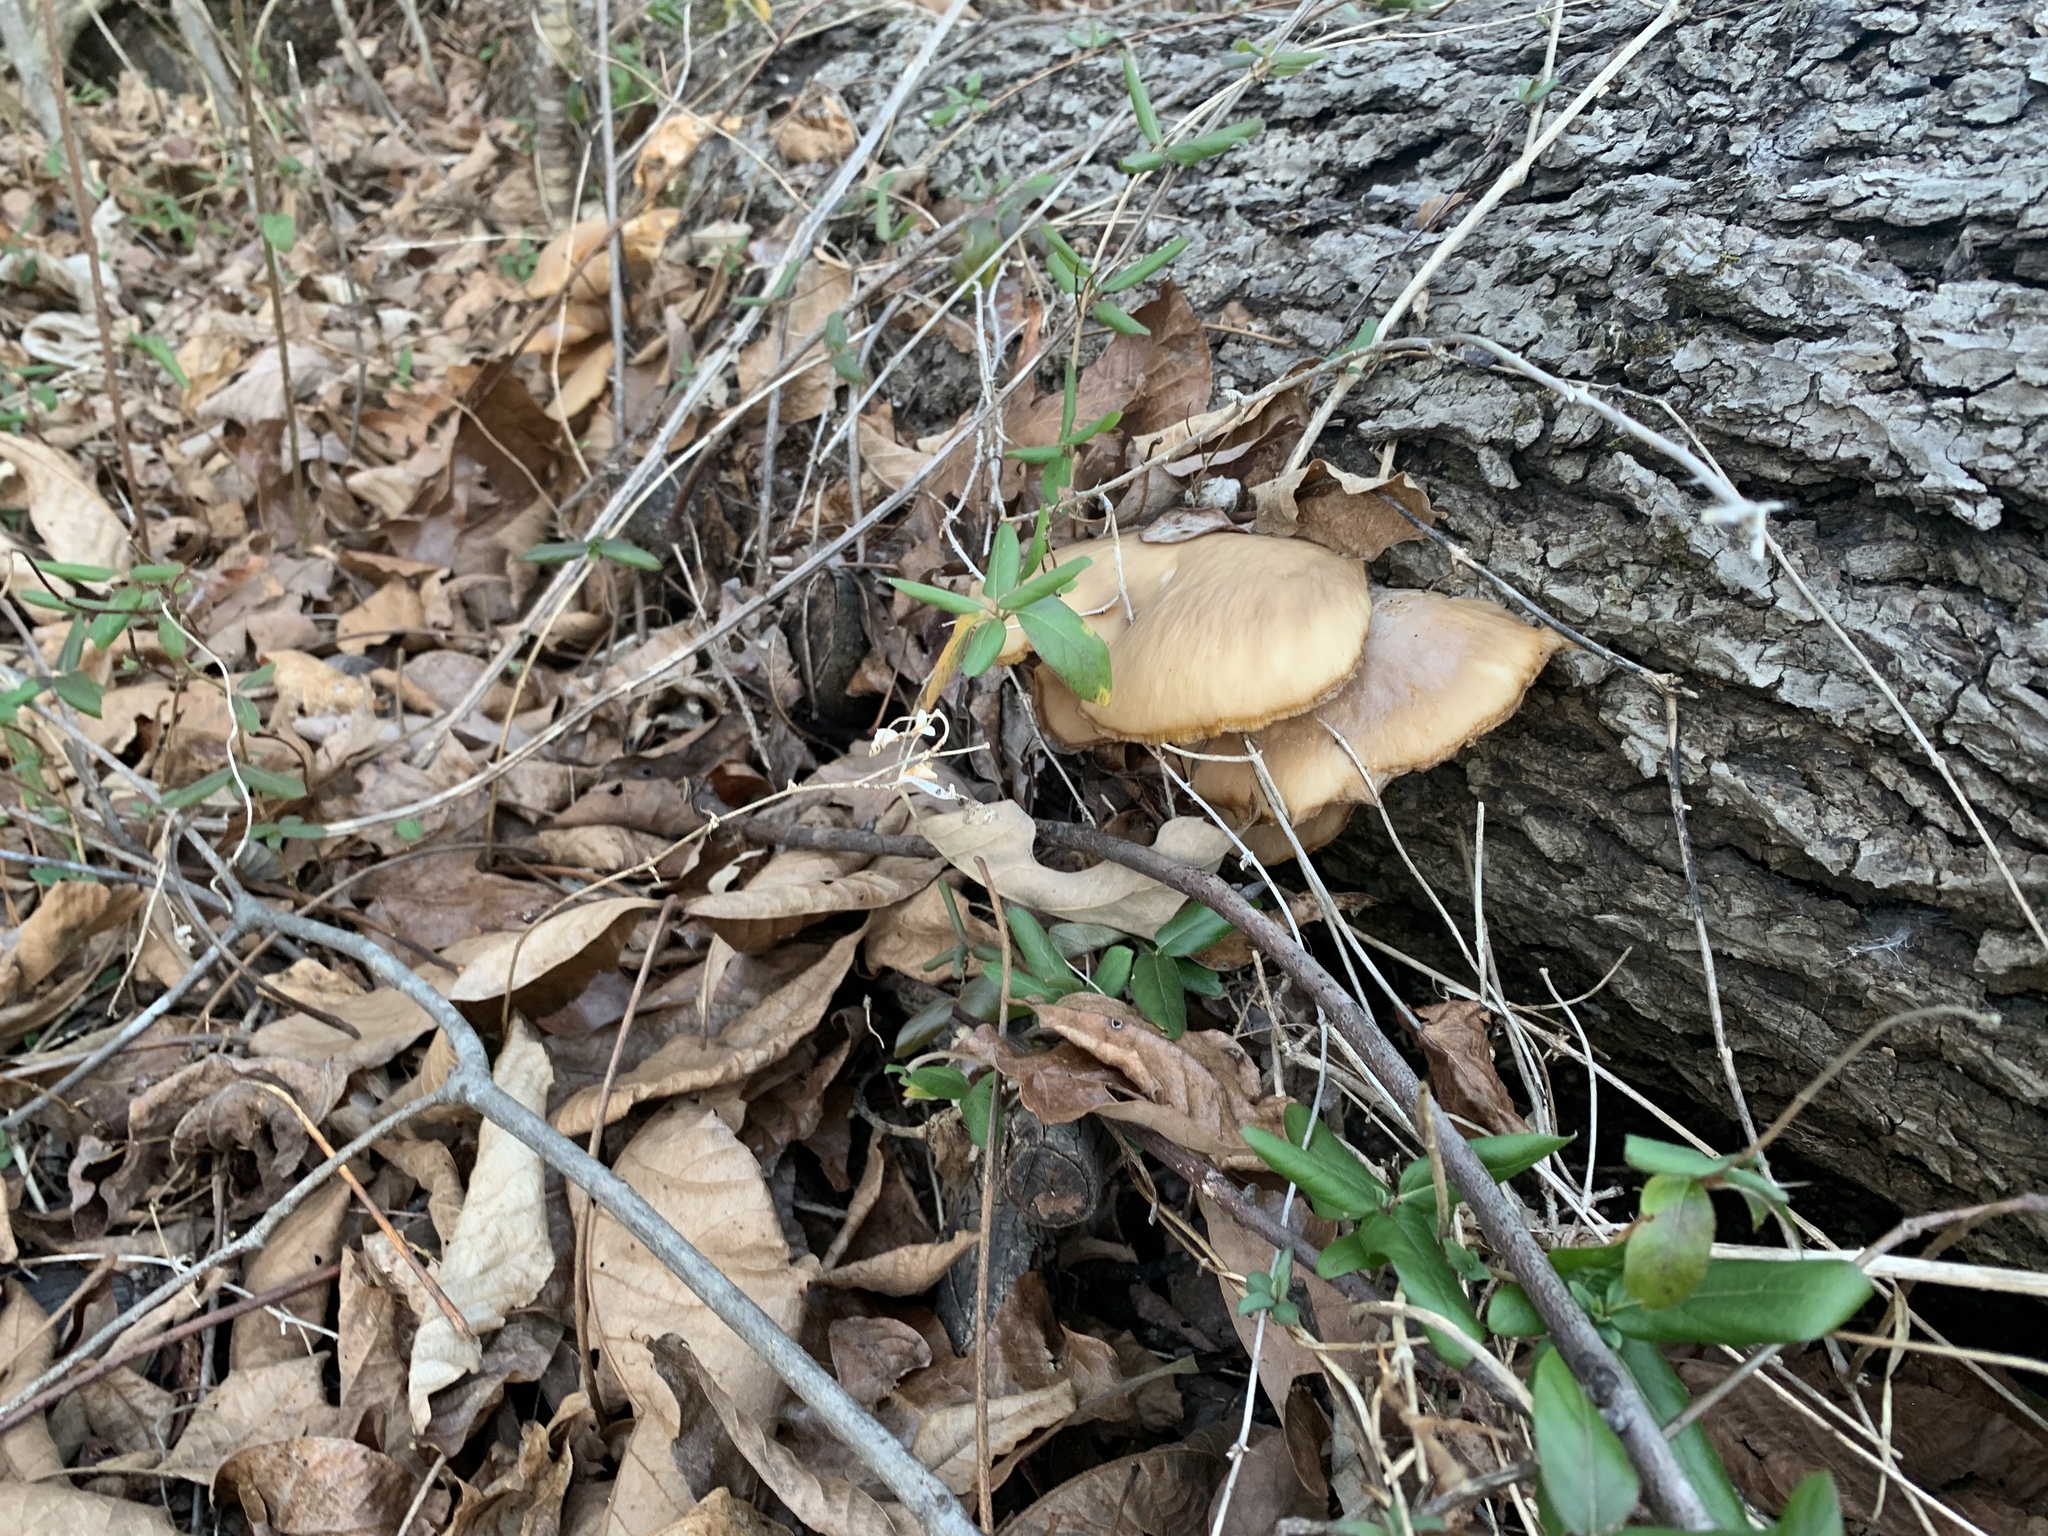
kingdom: Fungi
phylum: Basidiomycota
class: Agaricomycetes
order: Agaricales
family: Pleurotaceae
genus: Pleurotus
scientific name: Pleurotus ostreatus
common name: Oyster mushroom
